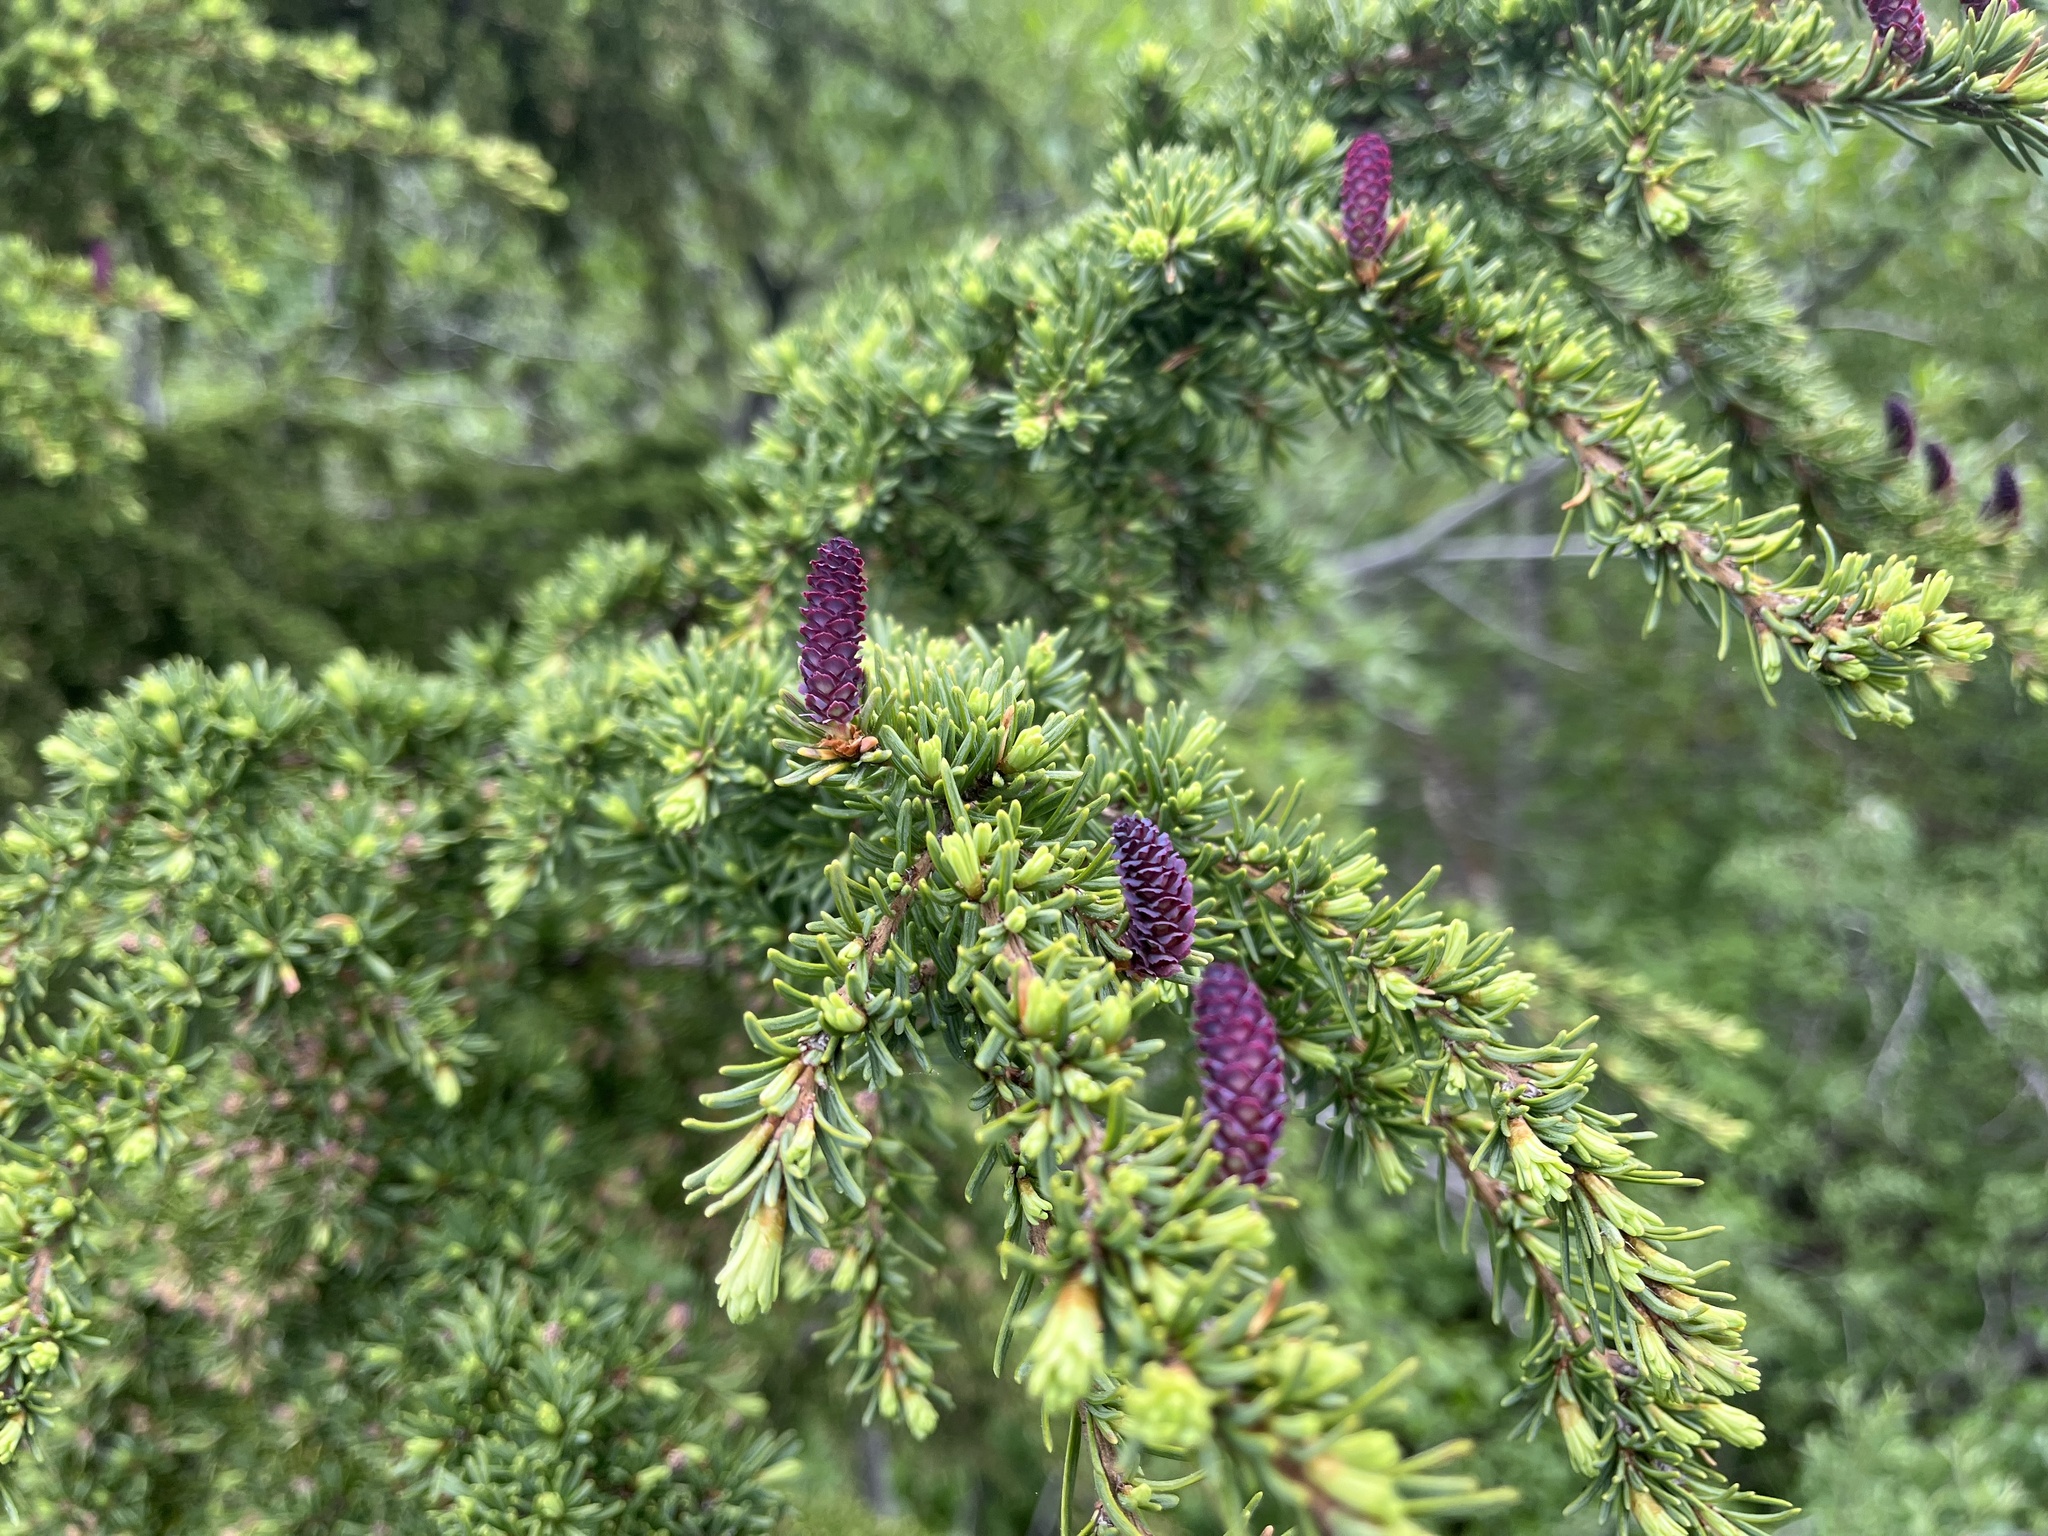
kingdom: Plantae
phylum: Tracheophyta
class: Pinopsida
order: Pinales
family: Pinaceae
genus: Tsuga
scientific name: Tsuga mertensiana
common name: Mountain hemlock
